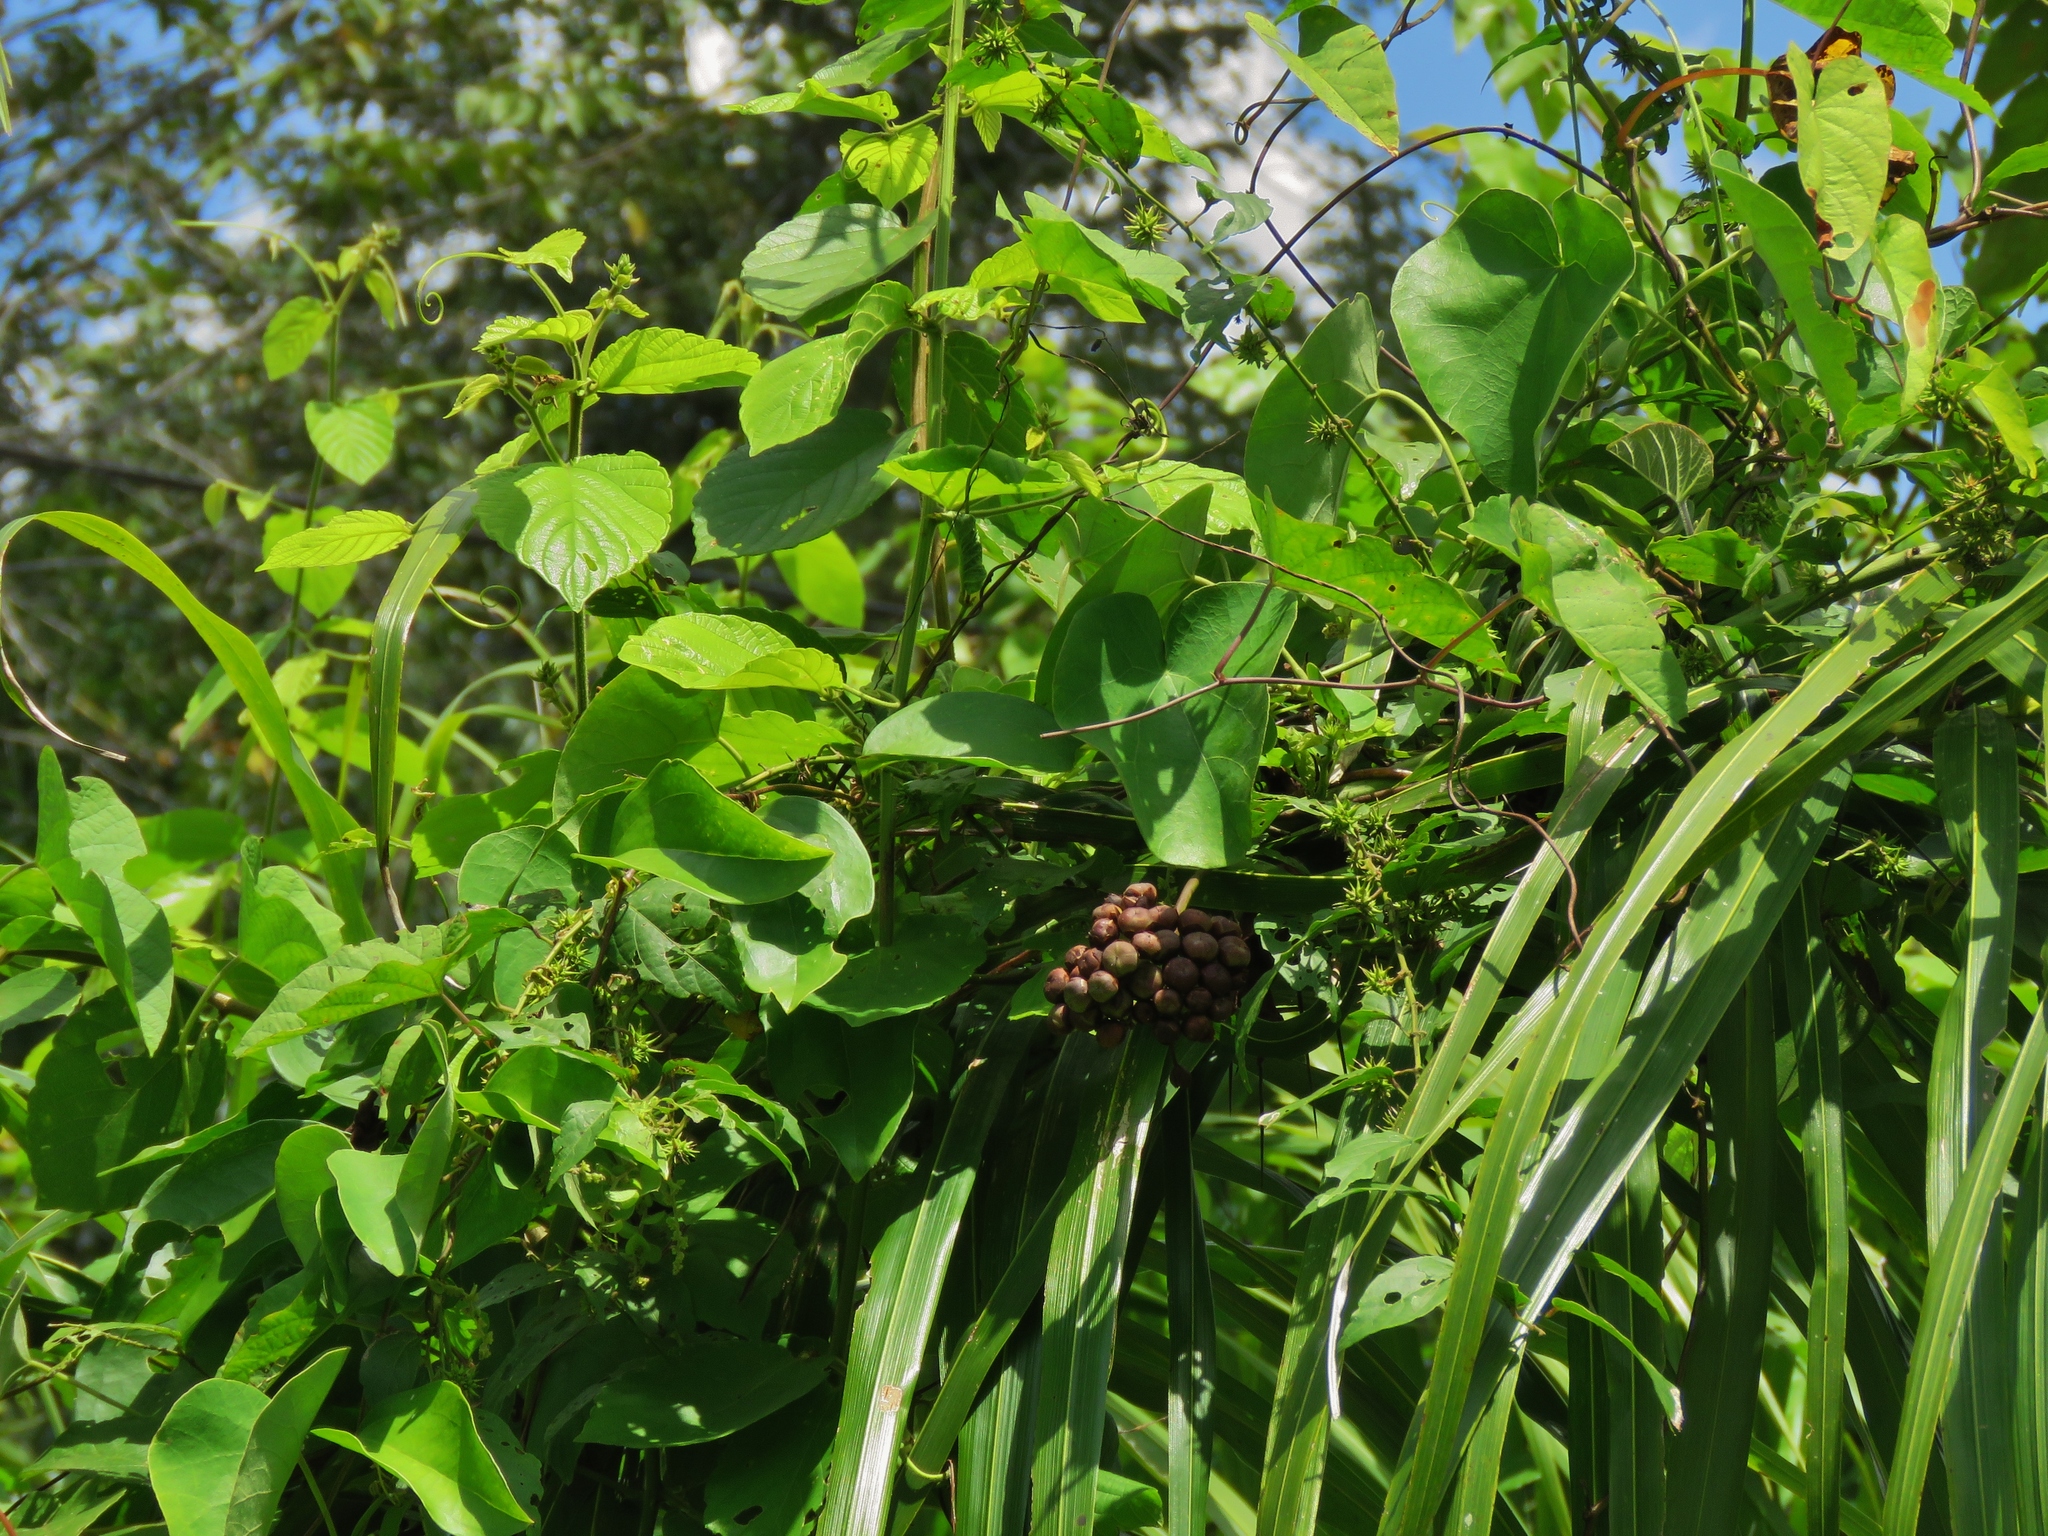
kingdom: Plantae
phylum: Tracheophyta
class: Magnoliopsida
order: Solanales
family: Convolvulaceae
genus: Camonea
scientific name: Camonea umbellata
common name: Hogvine
